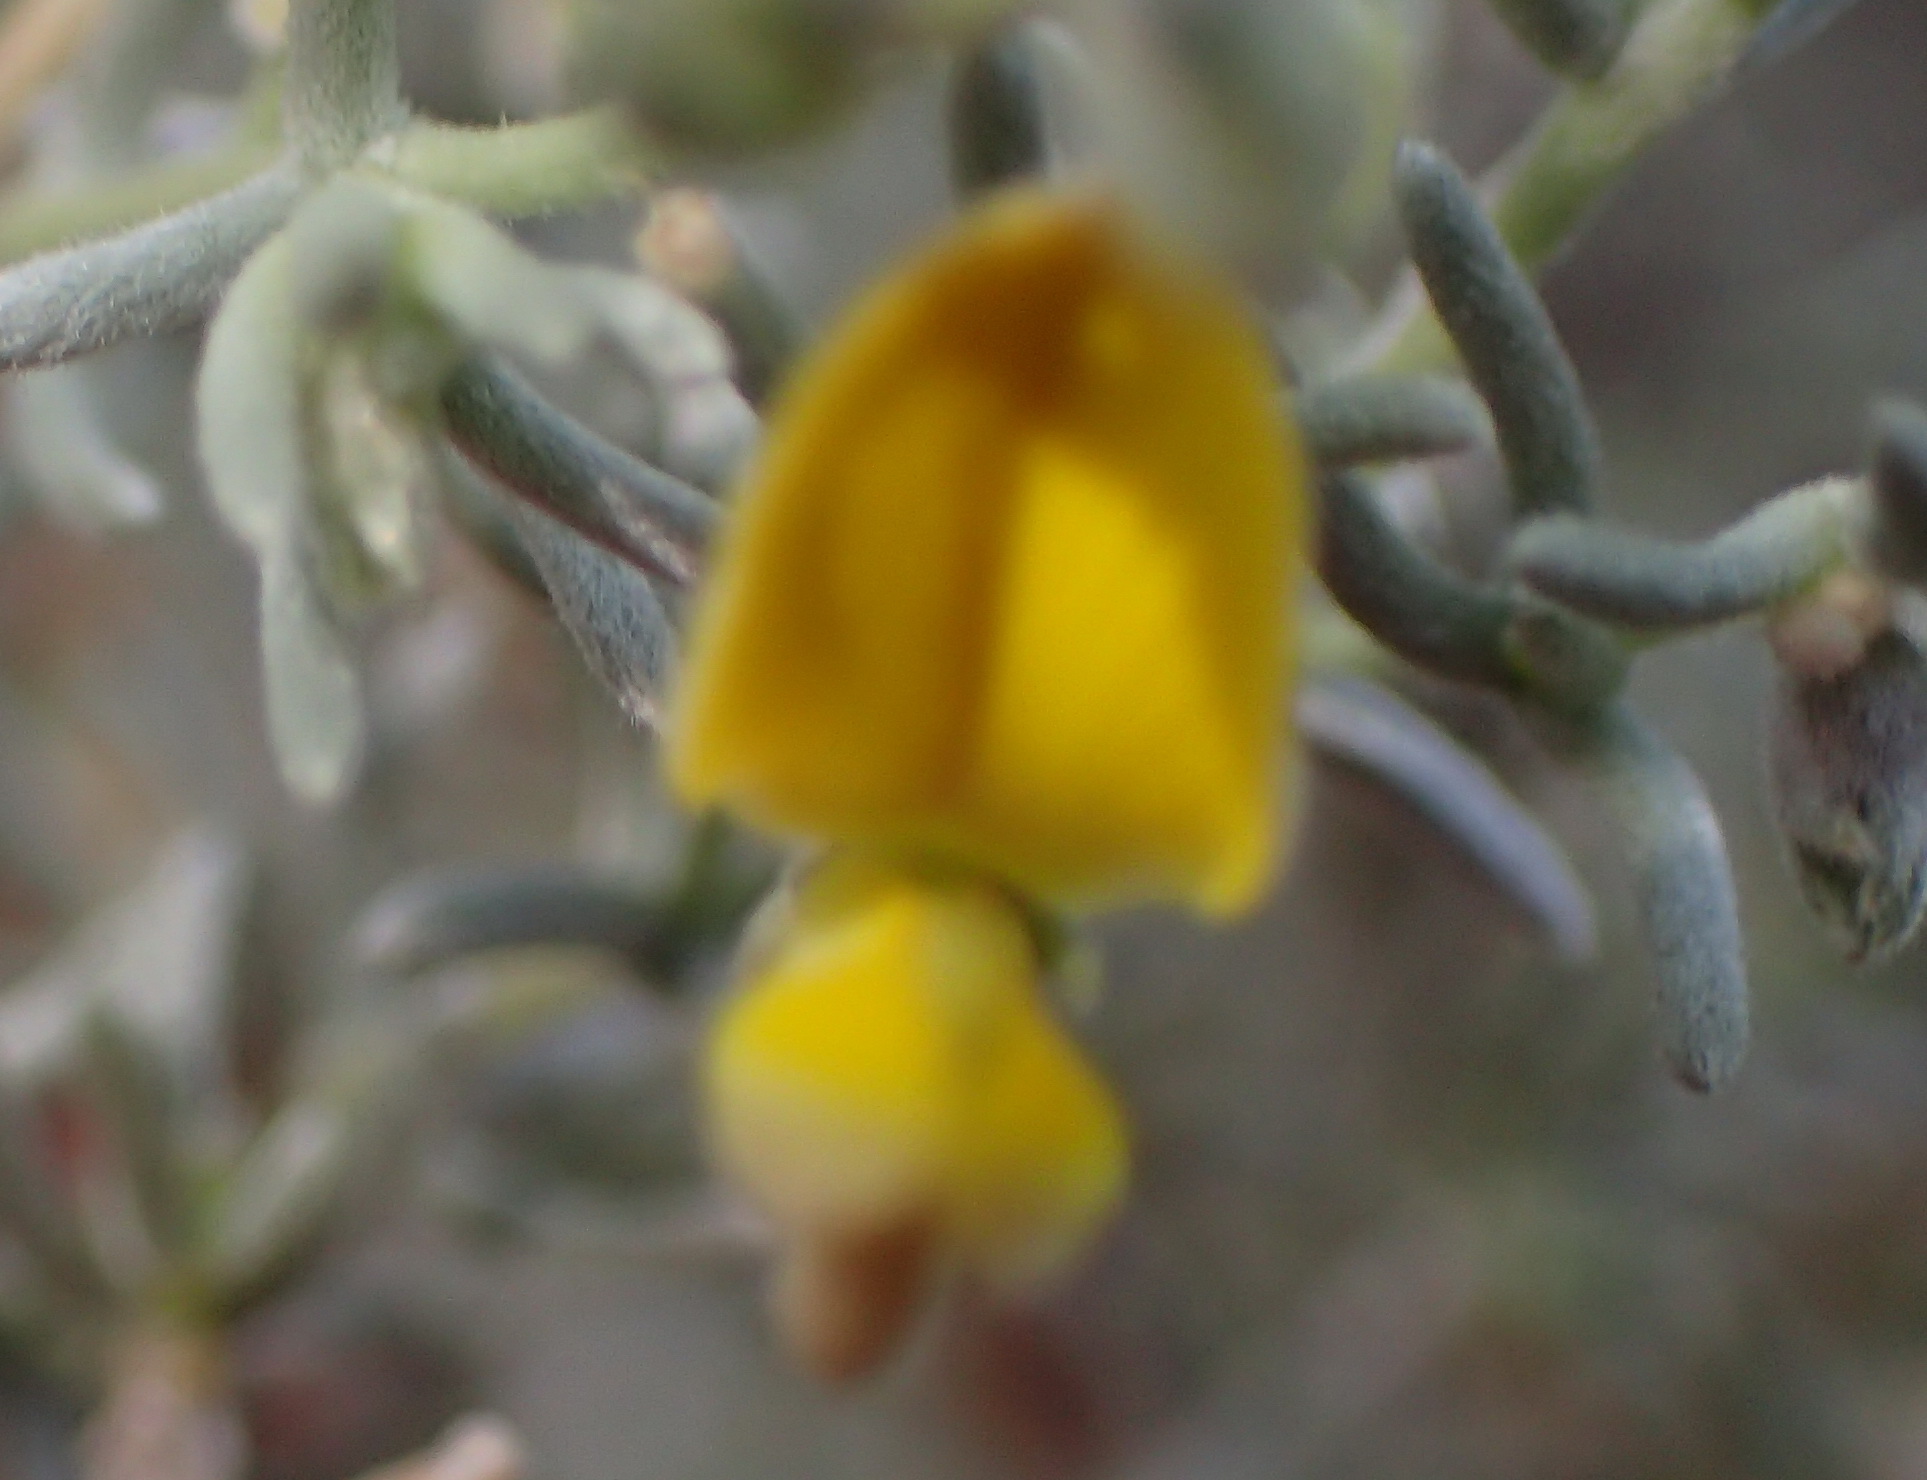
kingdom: Plantae
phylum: Tracheophyta
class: Magnoliopsida
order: Fabales
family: Fabaceae
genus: Aspalathus
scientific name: Aspalathus pedunculata
